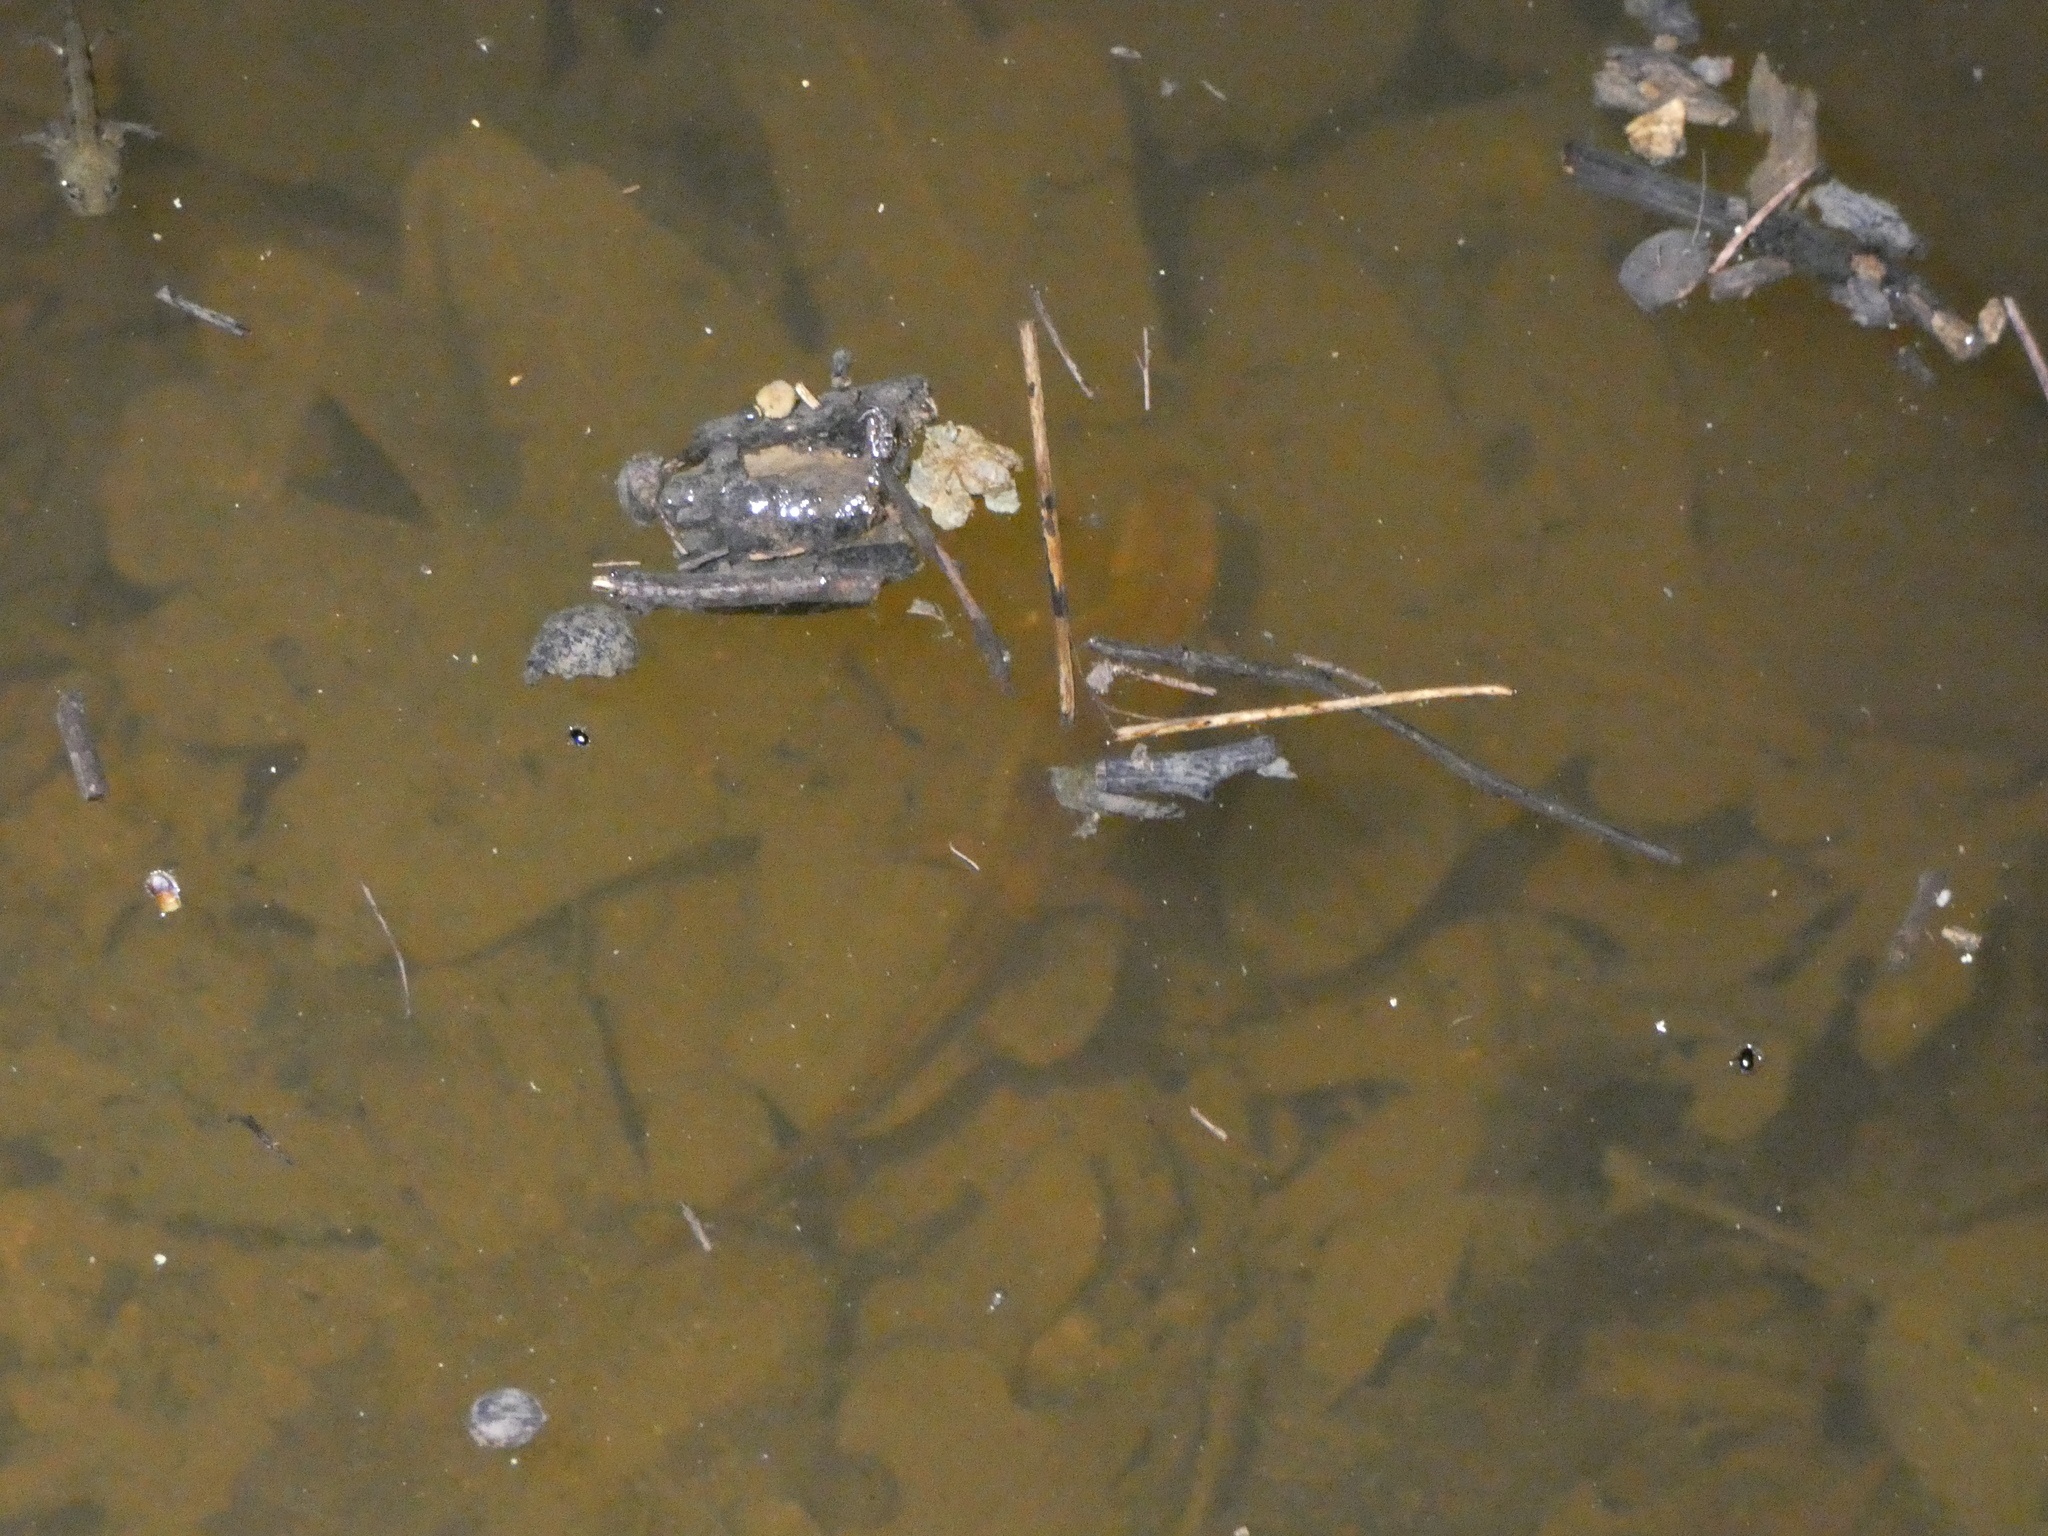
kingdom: Animalia
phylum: Chordata
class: Amphibia
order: Caudata
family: Salamandridae
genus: Lissotriton
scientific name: Lissotriton helveticus
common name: Palmate newt
